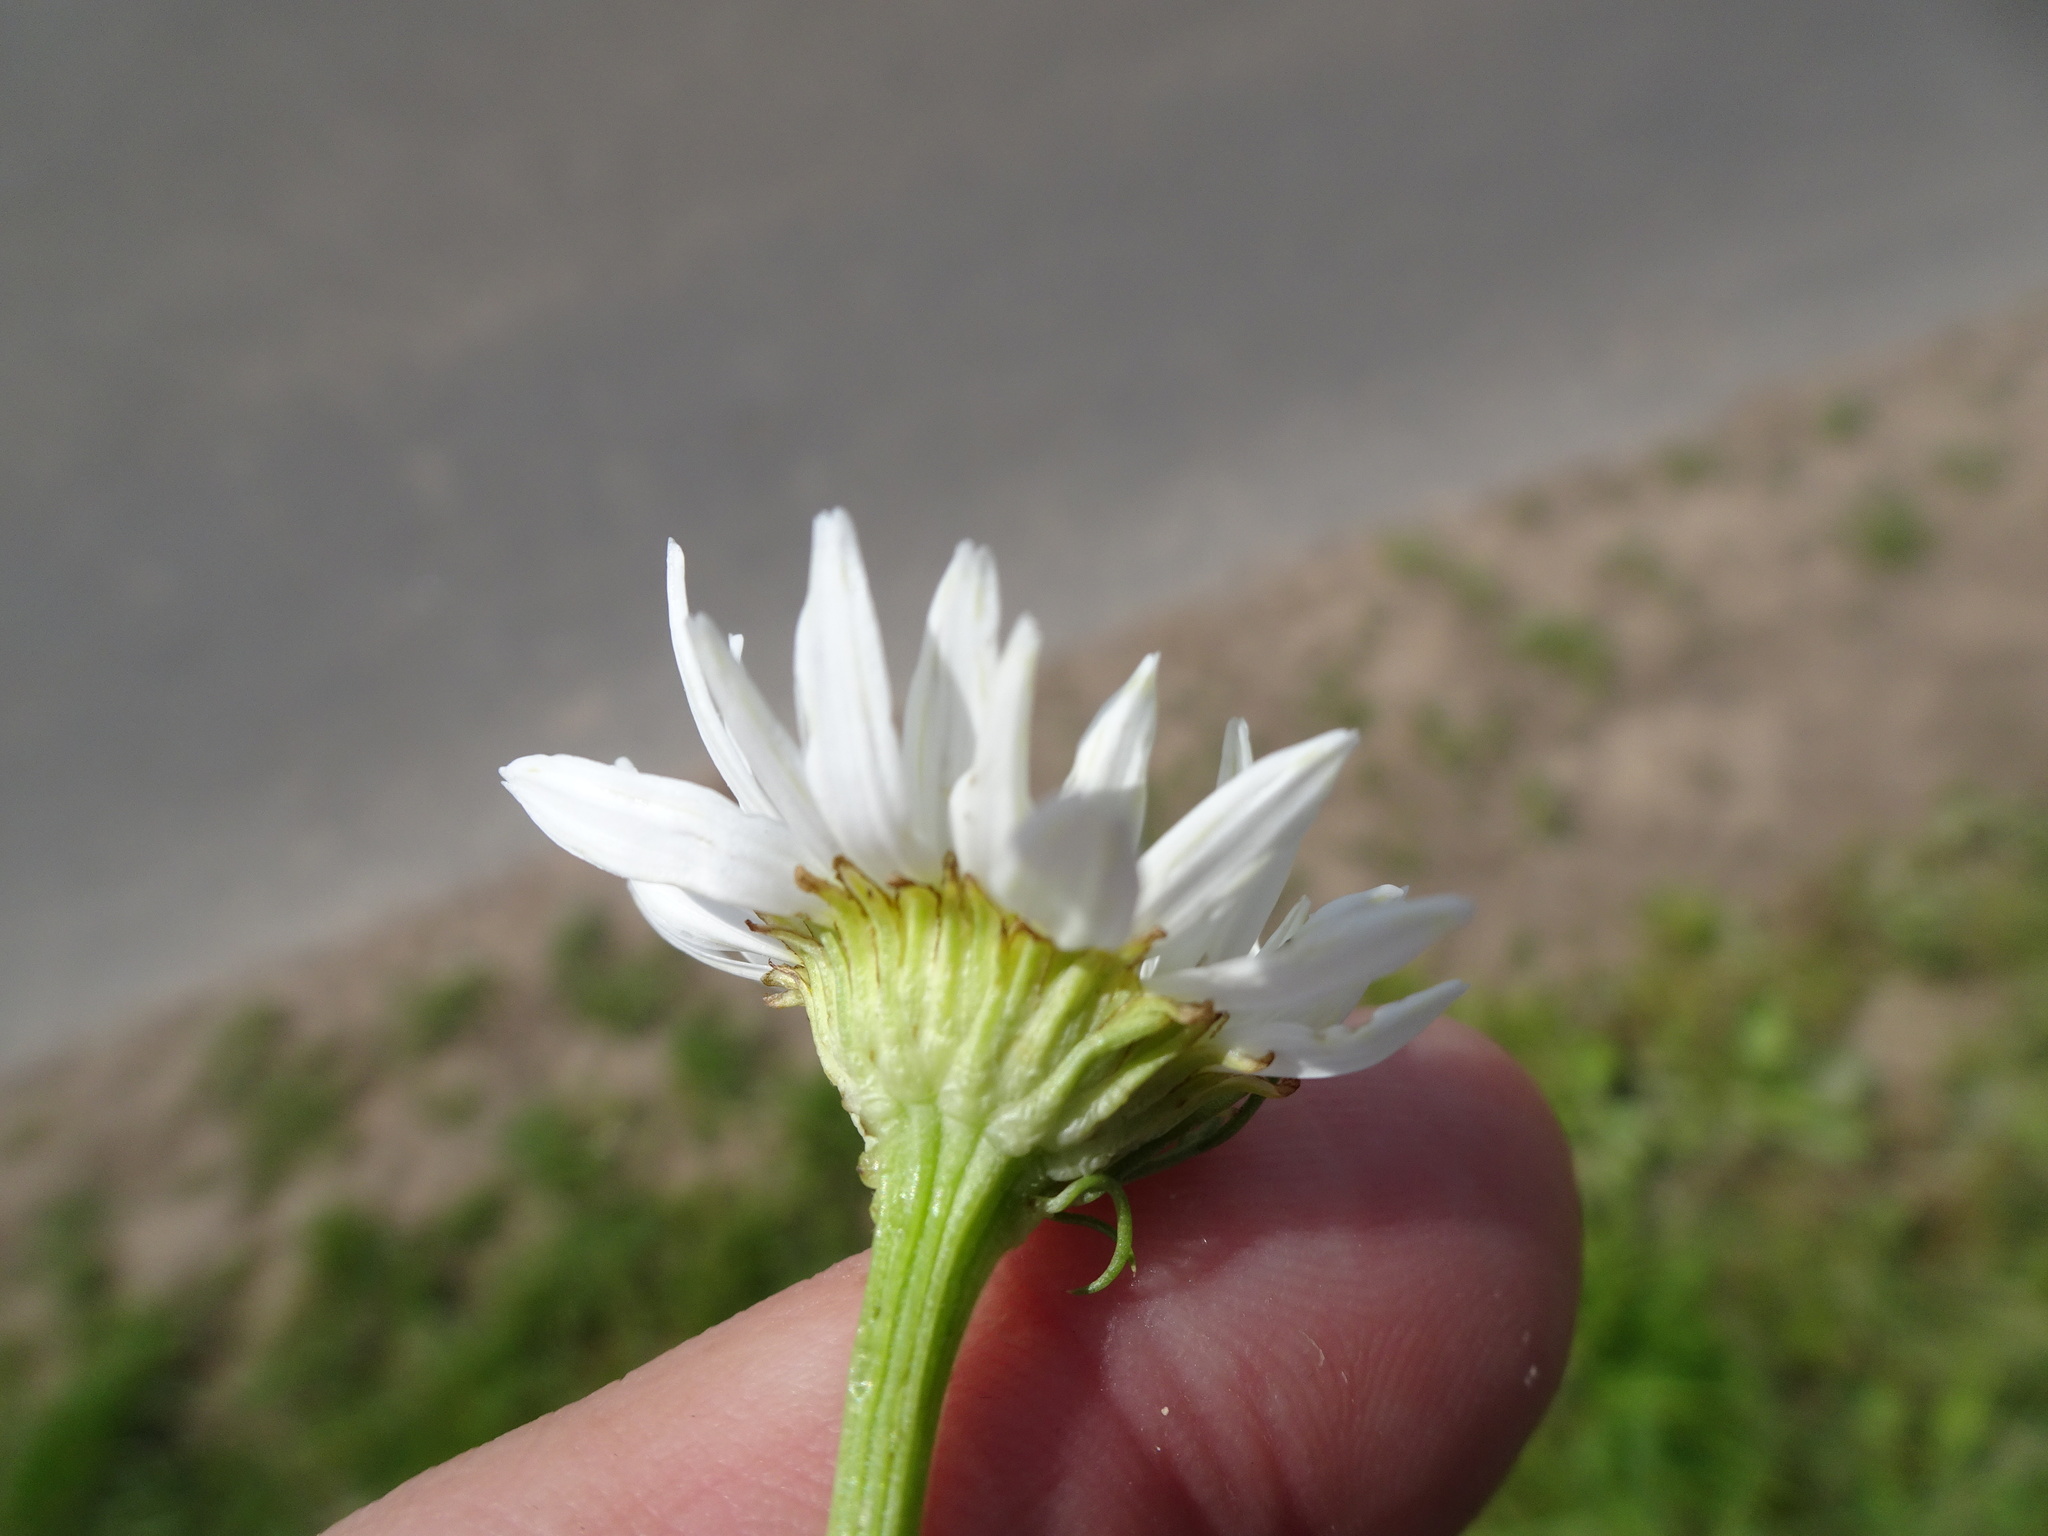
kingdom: Plantae
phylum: Tracheophyta
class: Magnoliopsida
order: Asterales
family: Asteraceae
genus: Tripleurospermum
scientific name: Tripleurospermum inodorum
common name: Scentless mayweed
